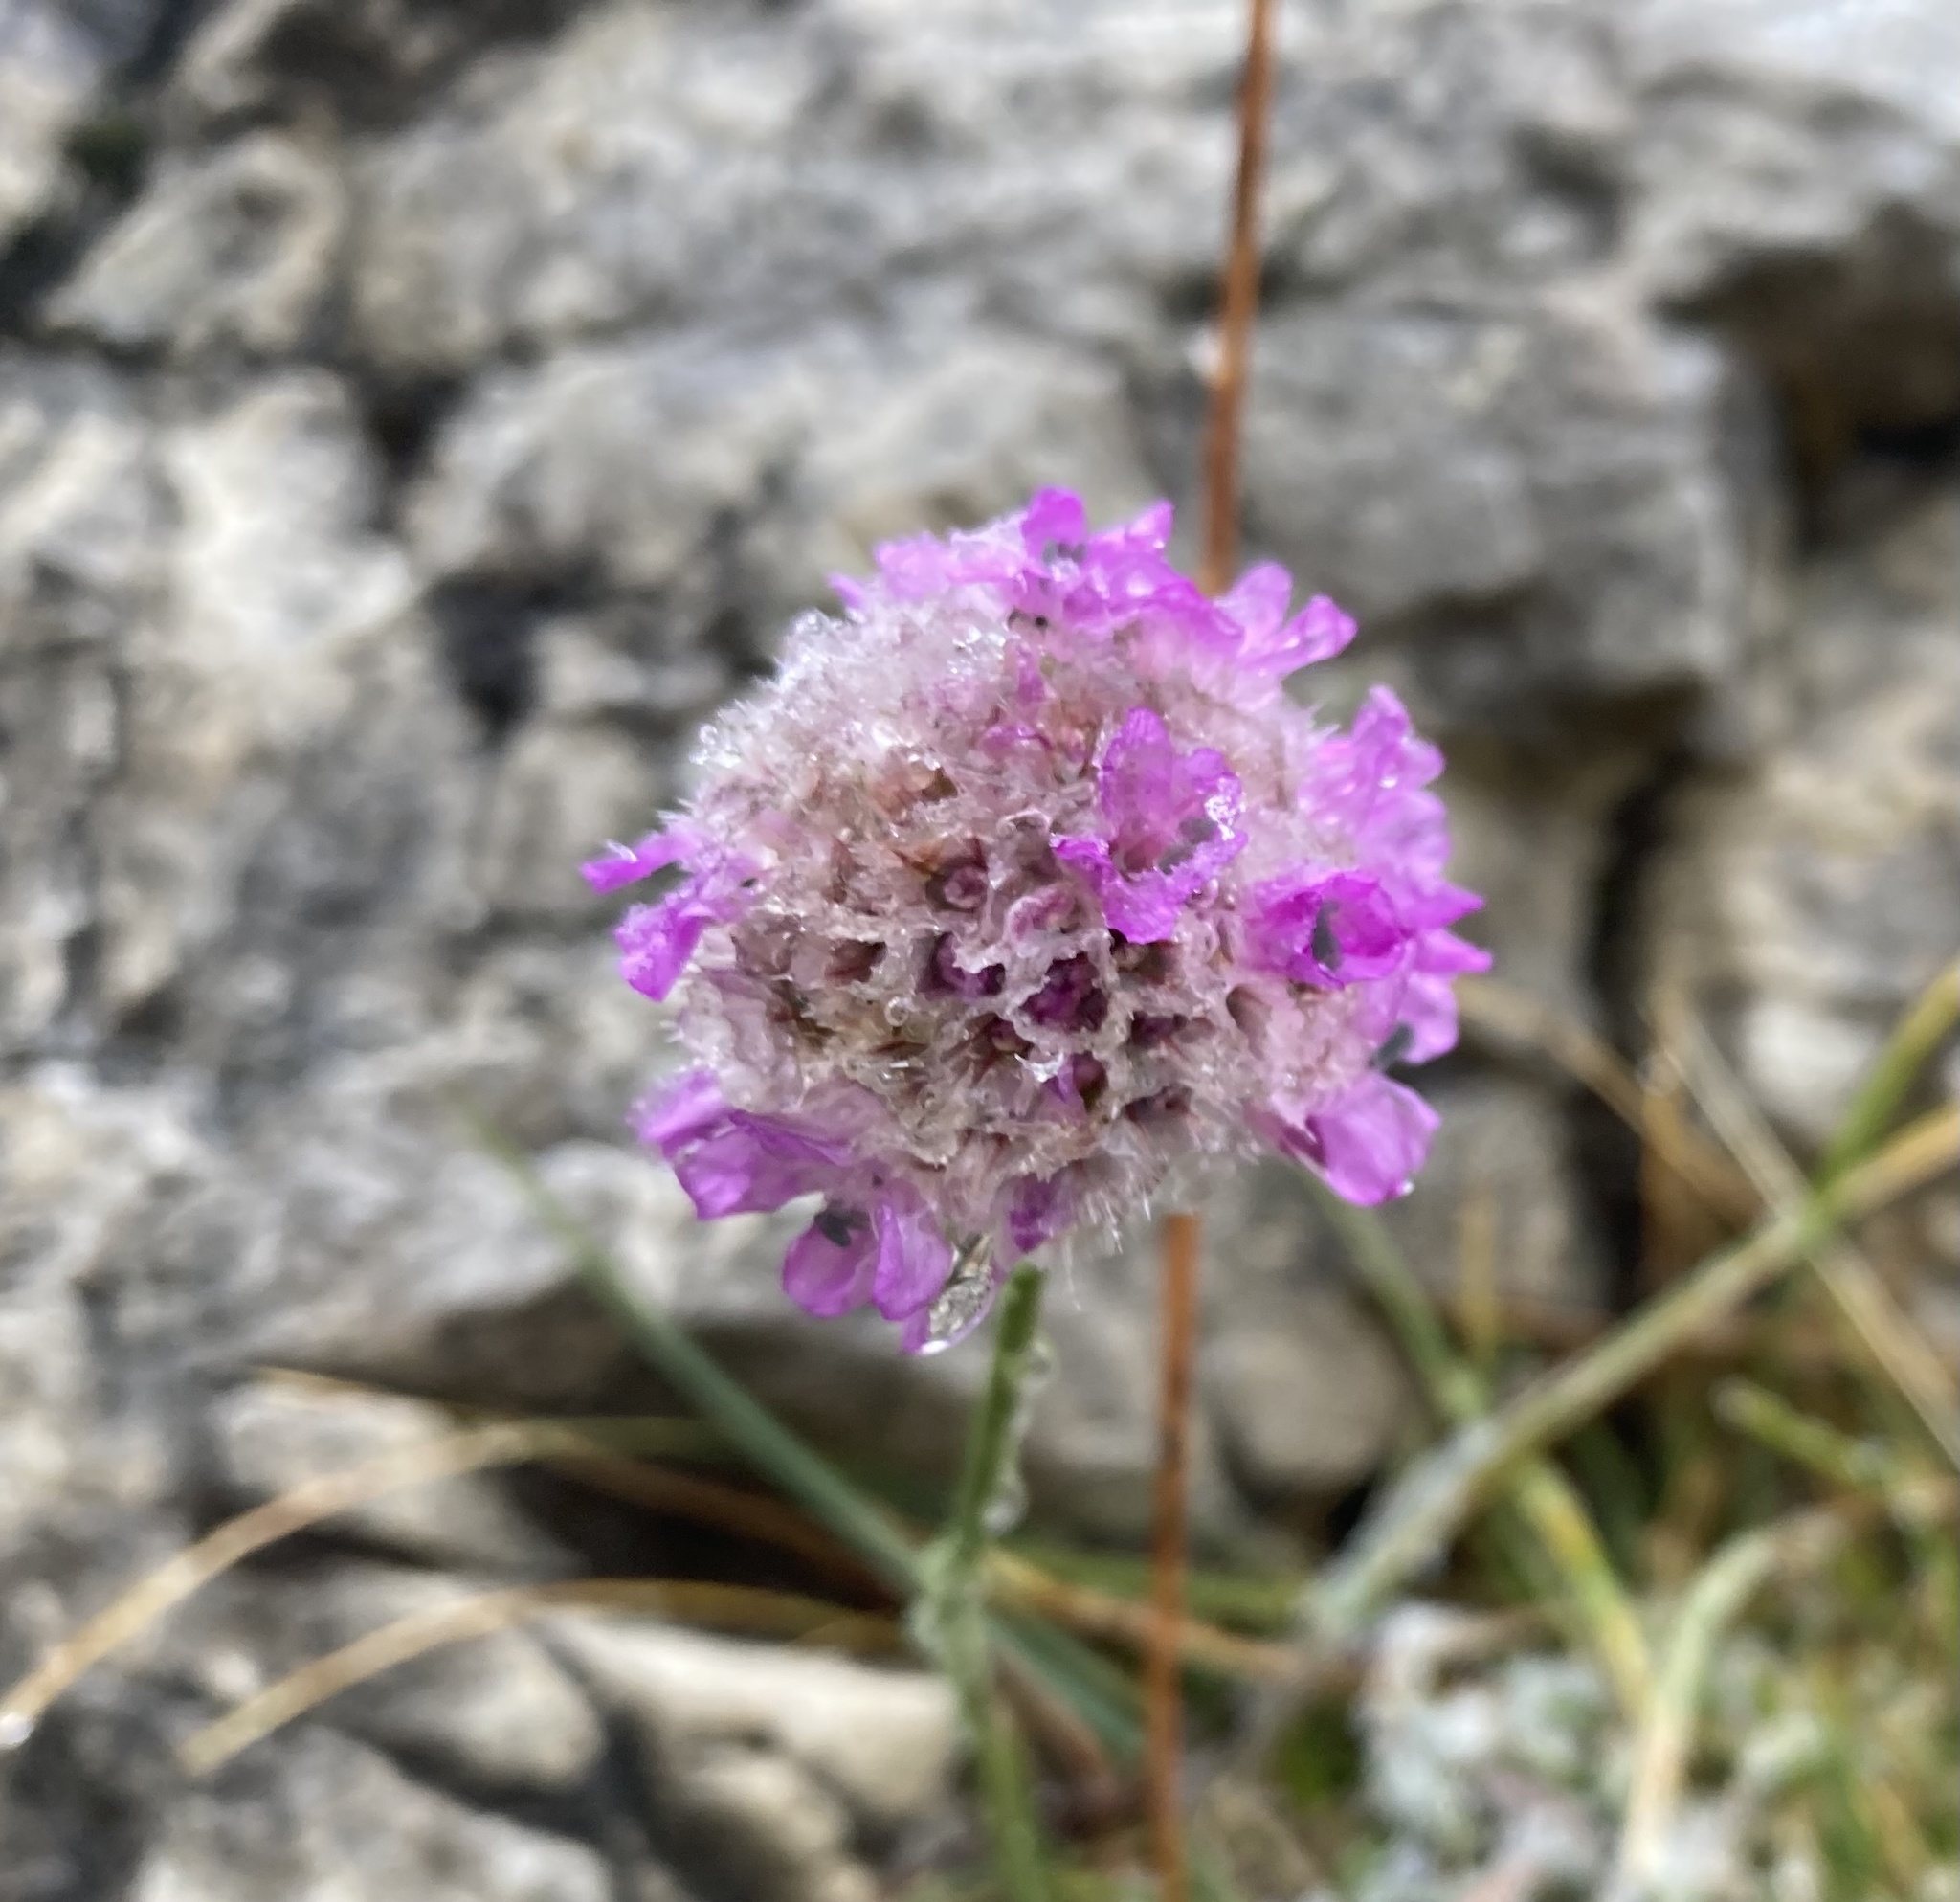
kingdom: Plantae
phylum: Tracheophyta
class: Magnoliopsida
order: Caryophyllales
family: Plumbaginaceae
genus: Armeria
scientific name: Armeria alpina
